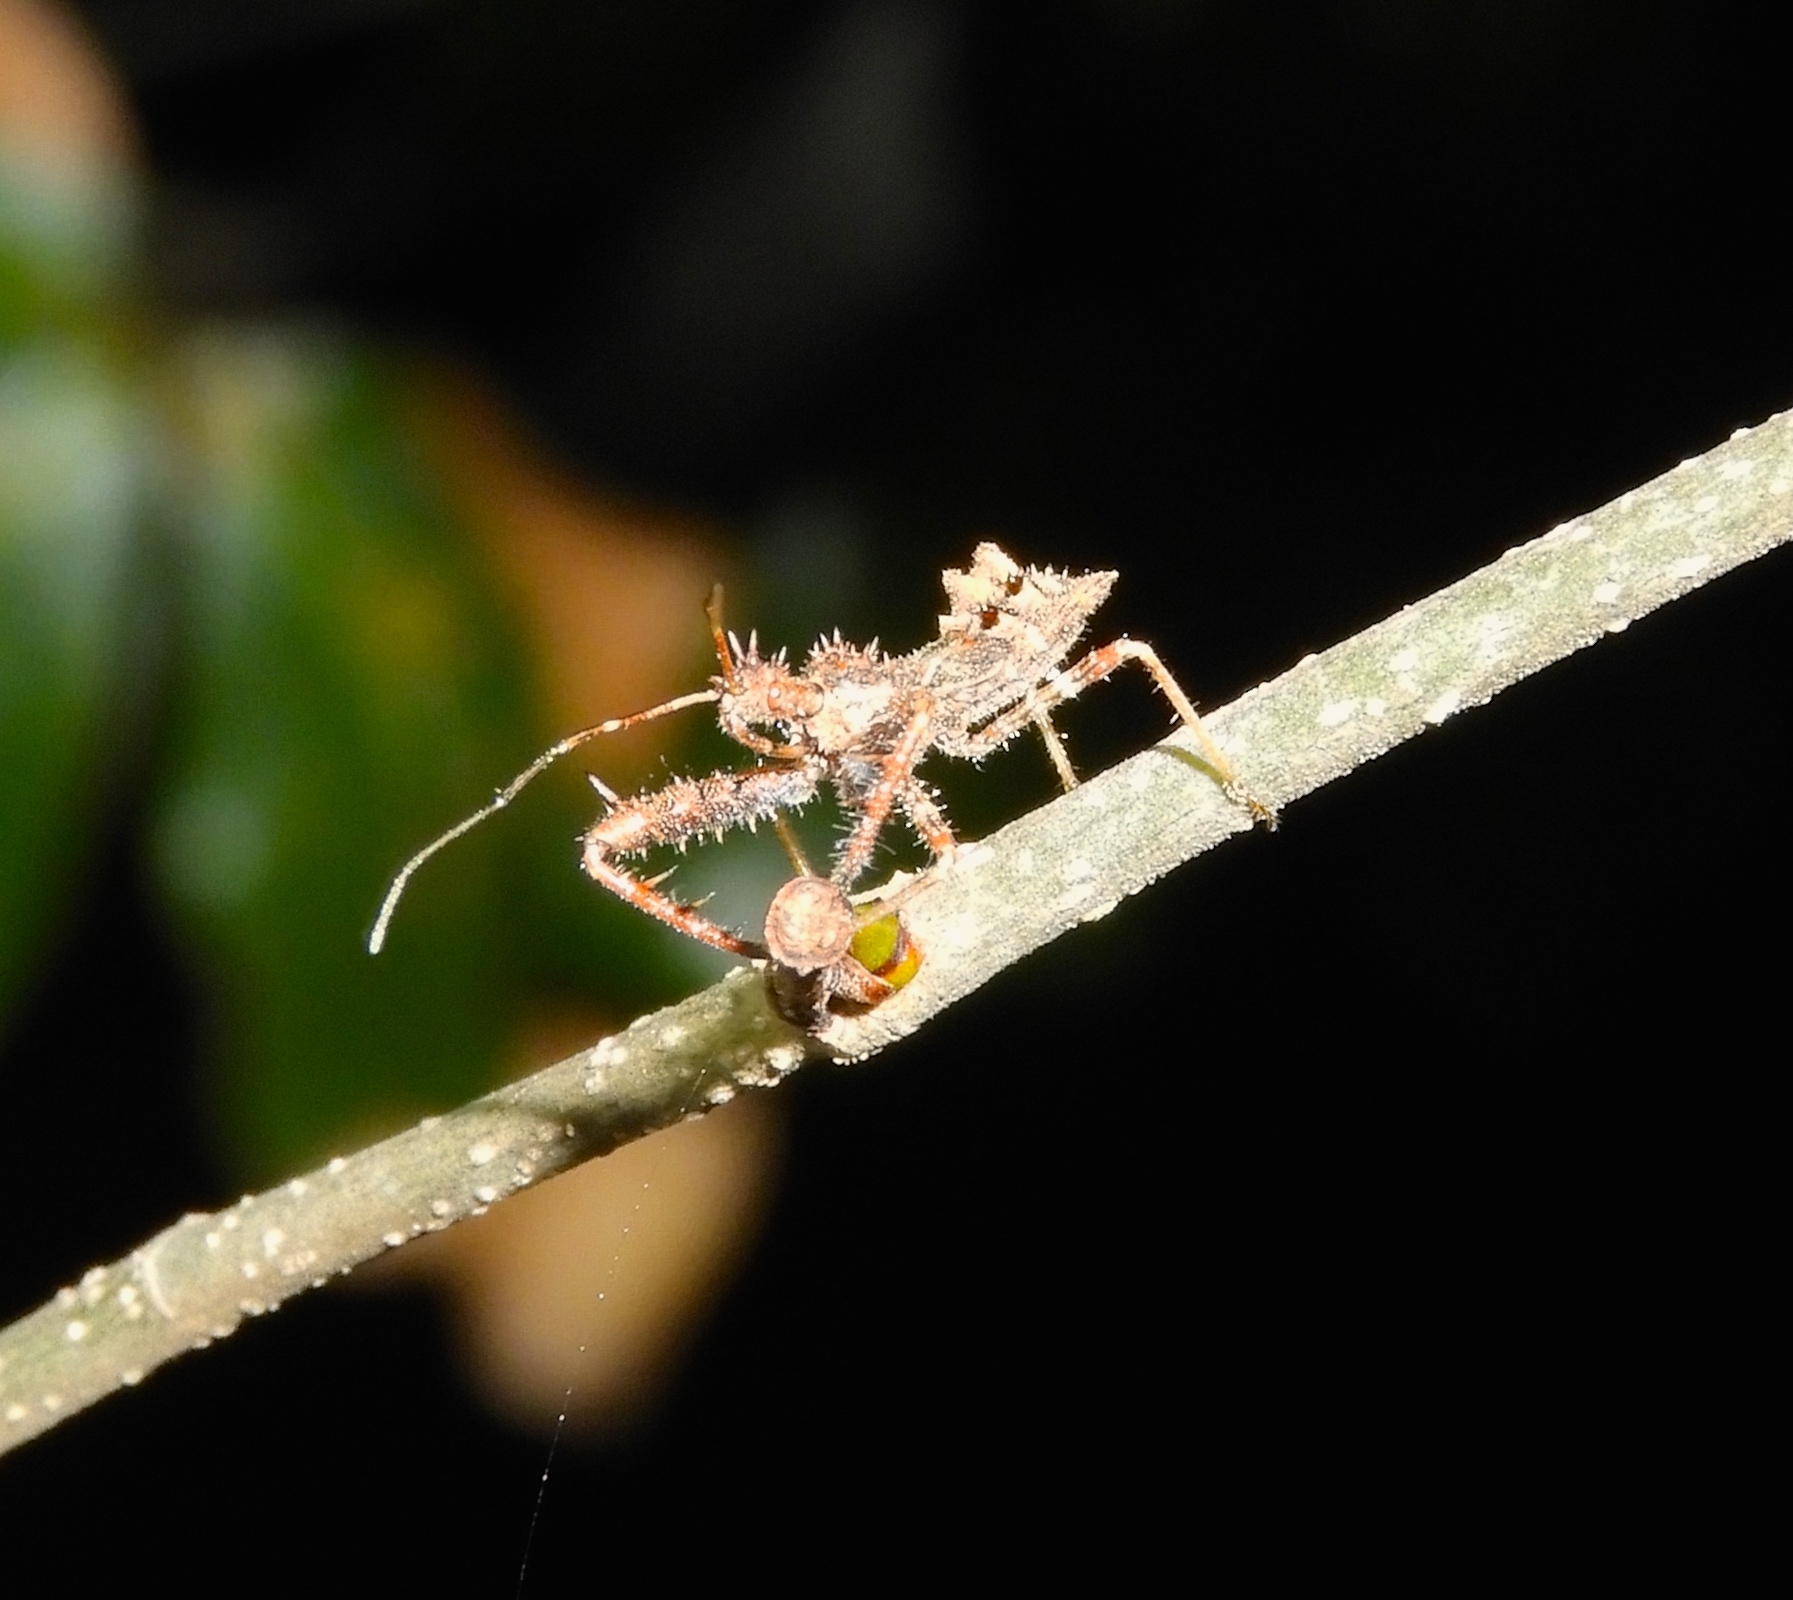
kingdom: Animalia
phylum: Arthropoda
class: Insecta
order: Hemiptera
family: Reduviidae
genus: Sinea
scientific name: Sinea
